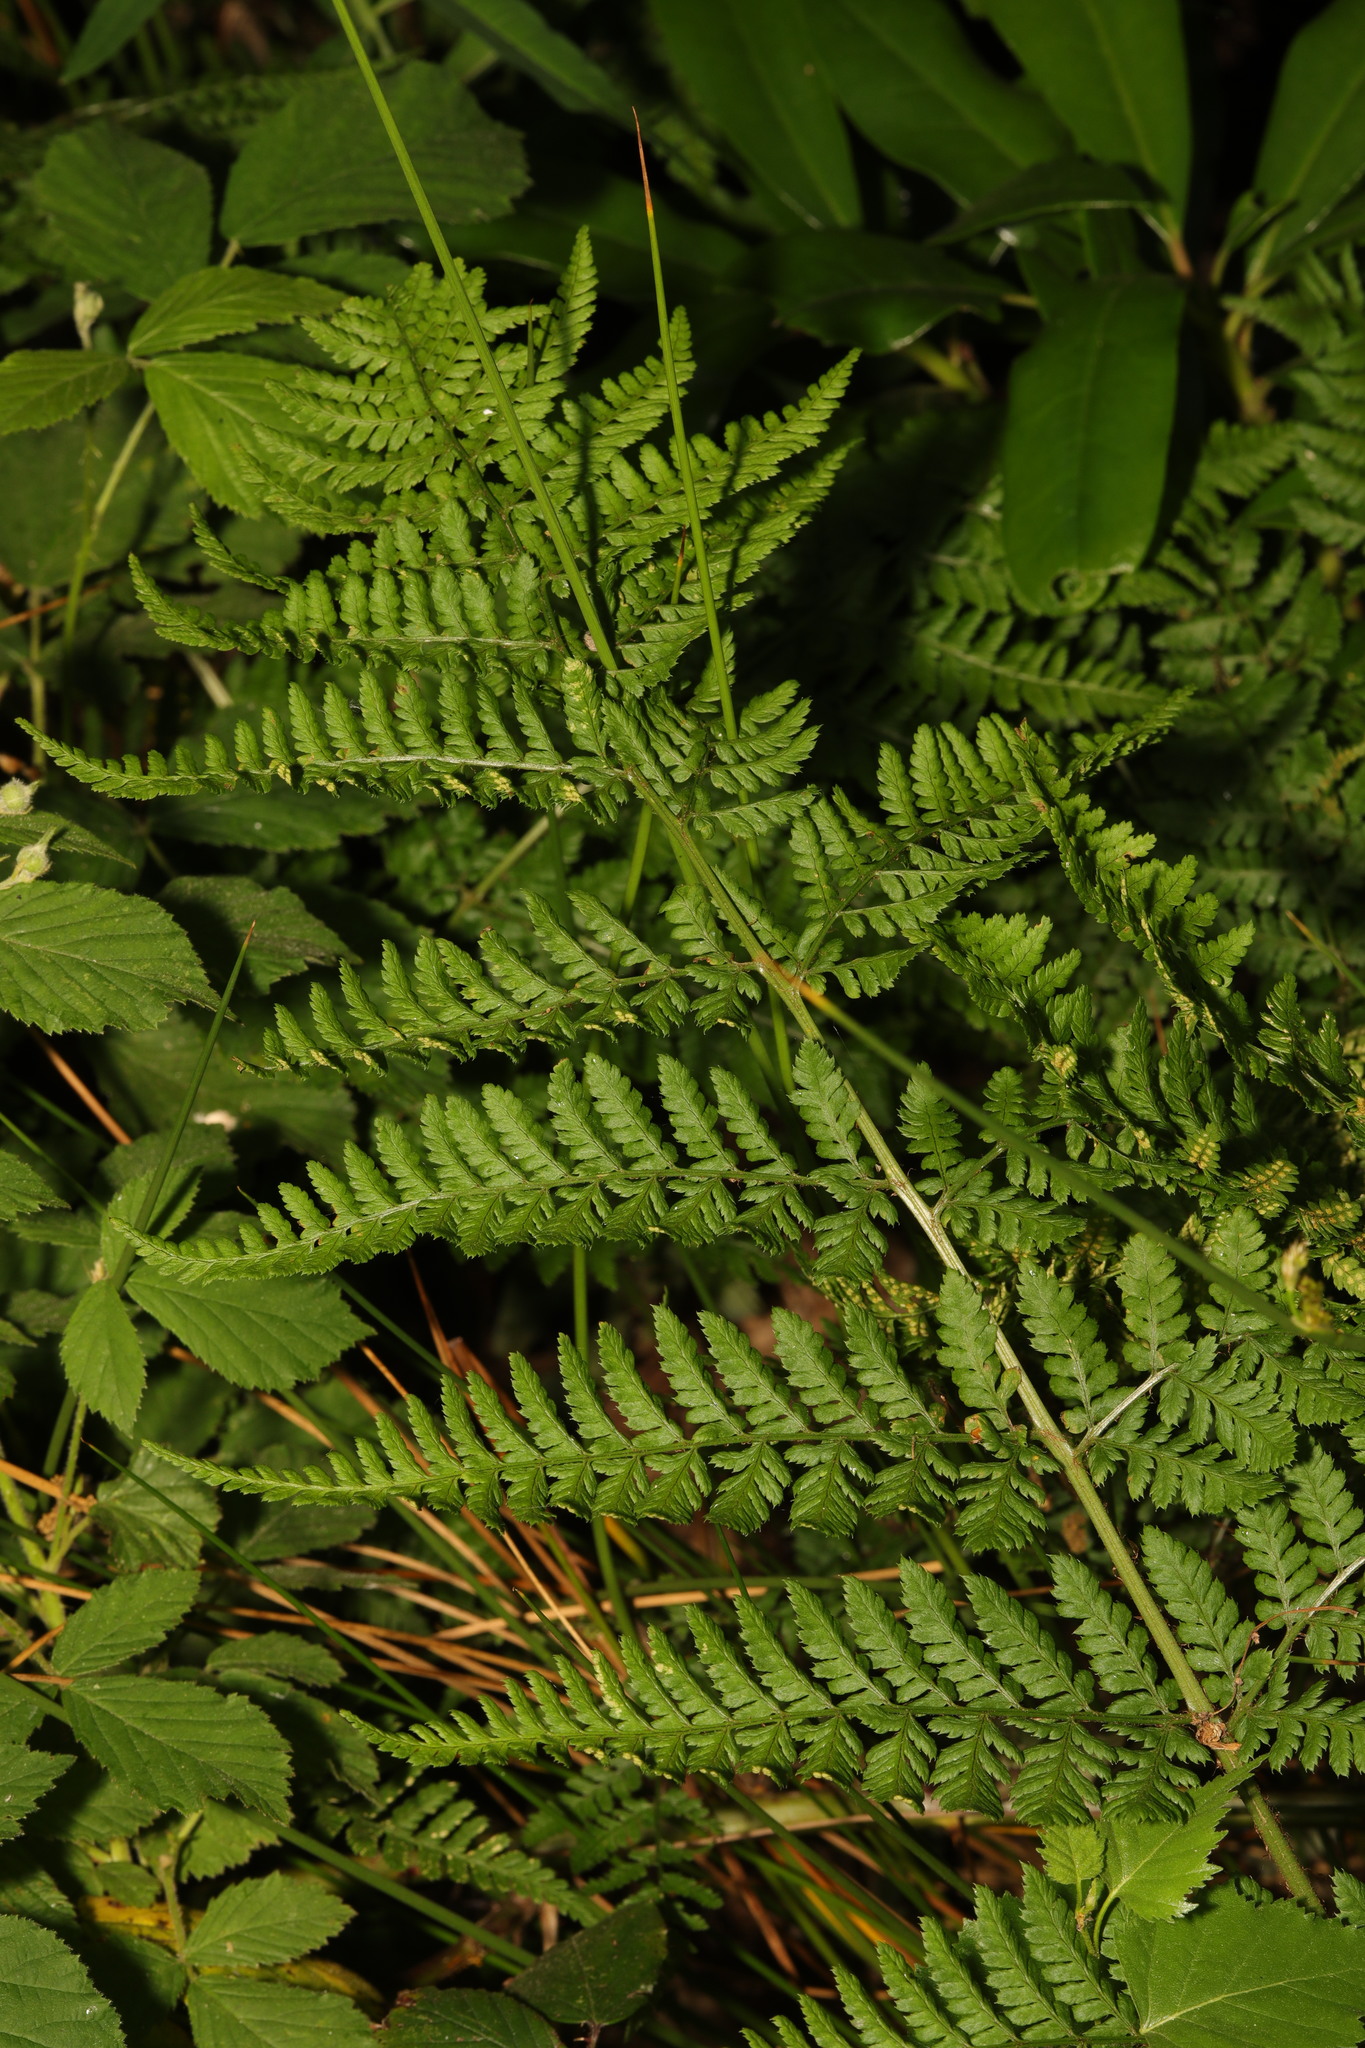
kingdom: Plantae
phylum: Tracheophyta
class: Polypodiopsida
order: Polypodiales
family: Dryopteridaceae
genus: Dryopteris
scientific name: Dryopteris dilatata
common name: Broad buckler-fern
